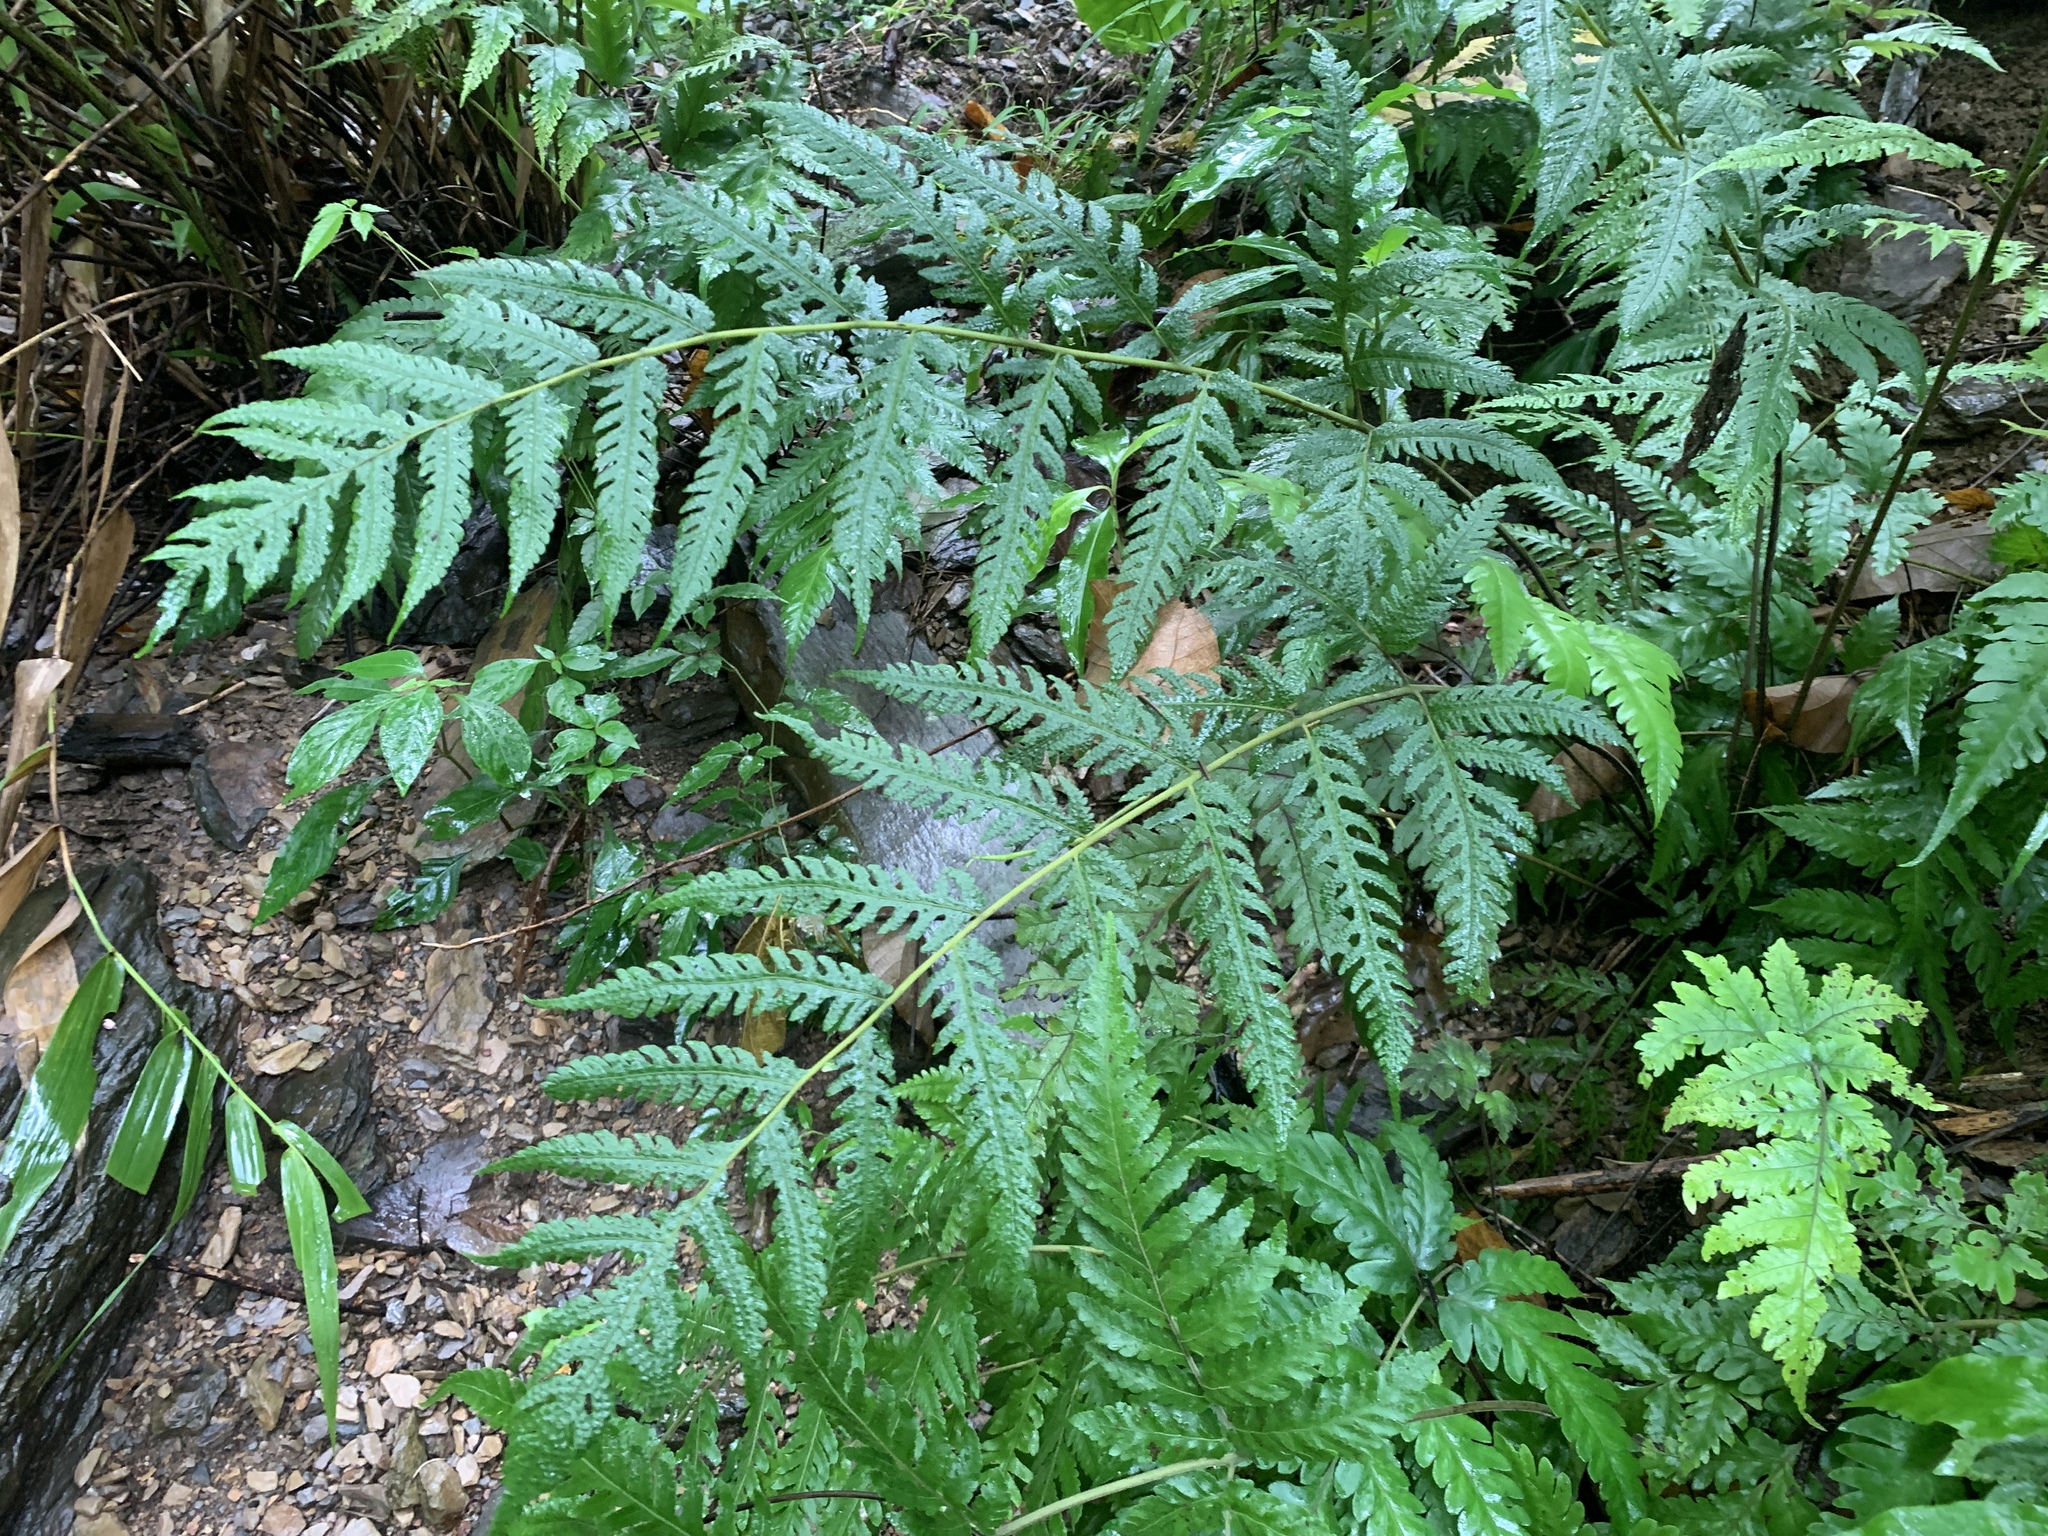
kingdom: Plantae
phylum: Tracheophyta
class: Polypodiopsida
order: Polypodiales
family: Tectariaceae
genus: Tectaria
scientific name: Tectaria subfuscipes
